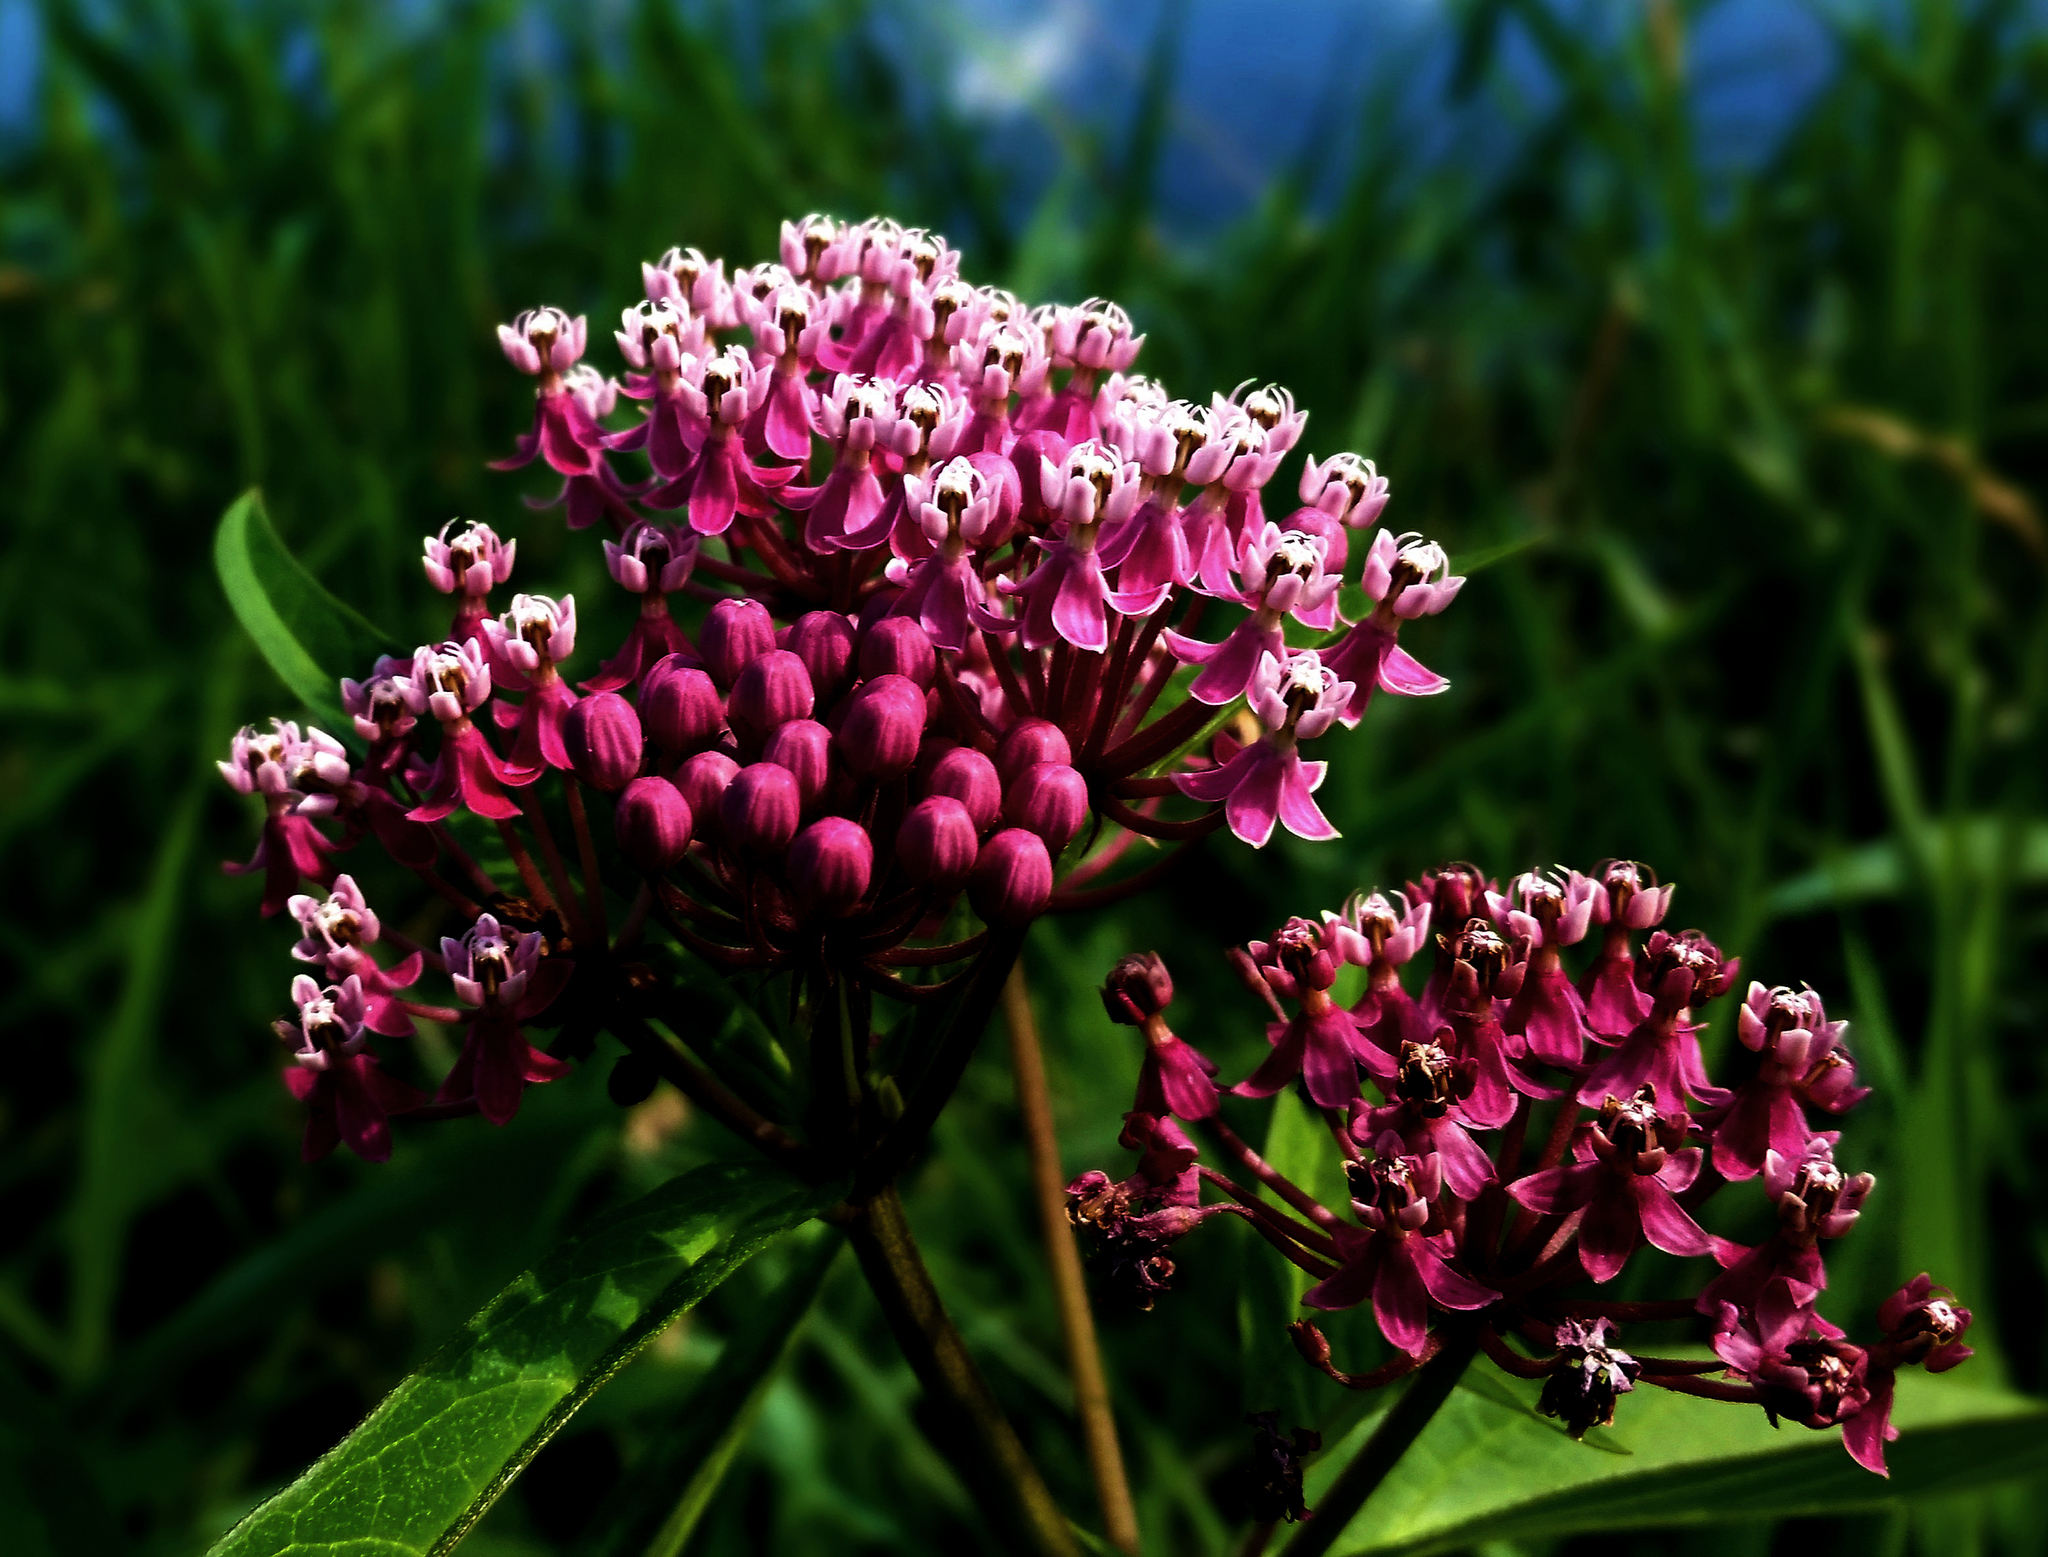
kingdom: Plantae
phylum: Tracheophyta
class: Magnoliopsida
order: Gentianales
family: Apocynaceae
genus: Asclepias
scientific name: Asclepias incarnata
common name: Swamp milkweed
